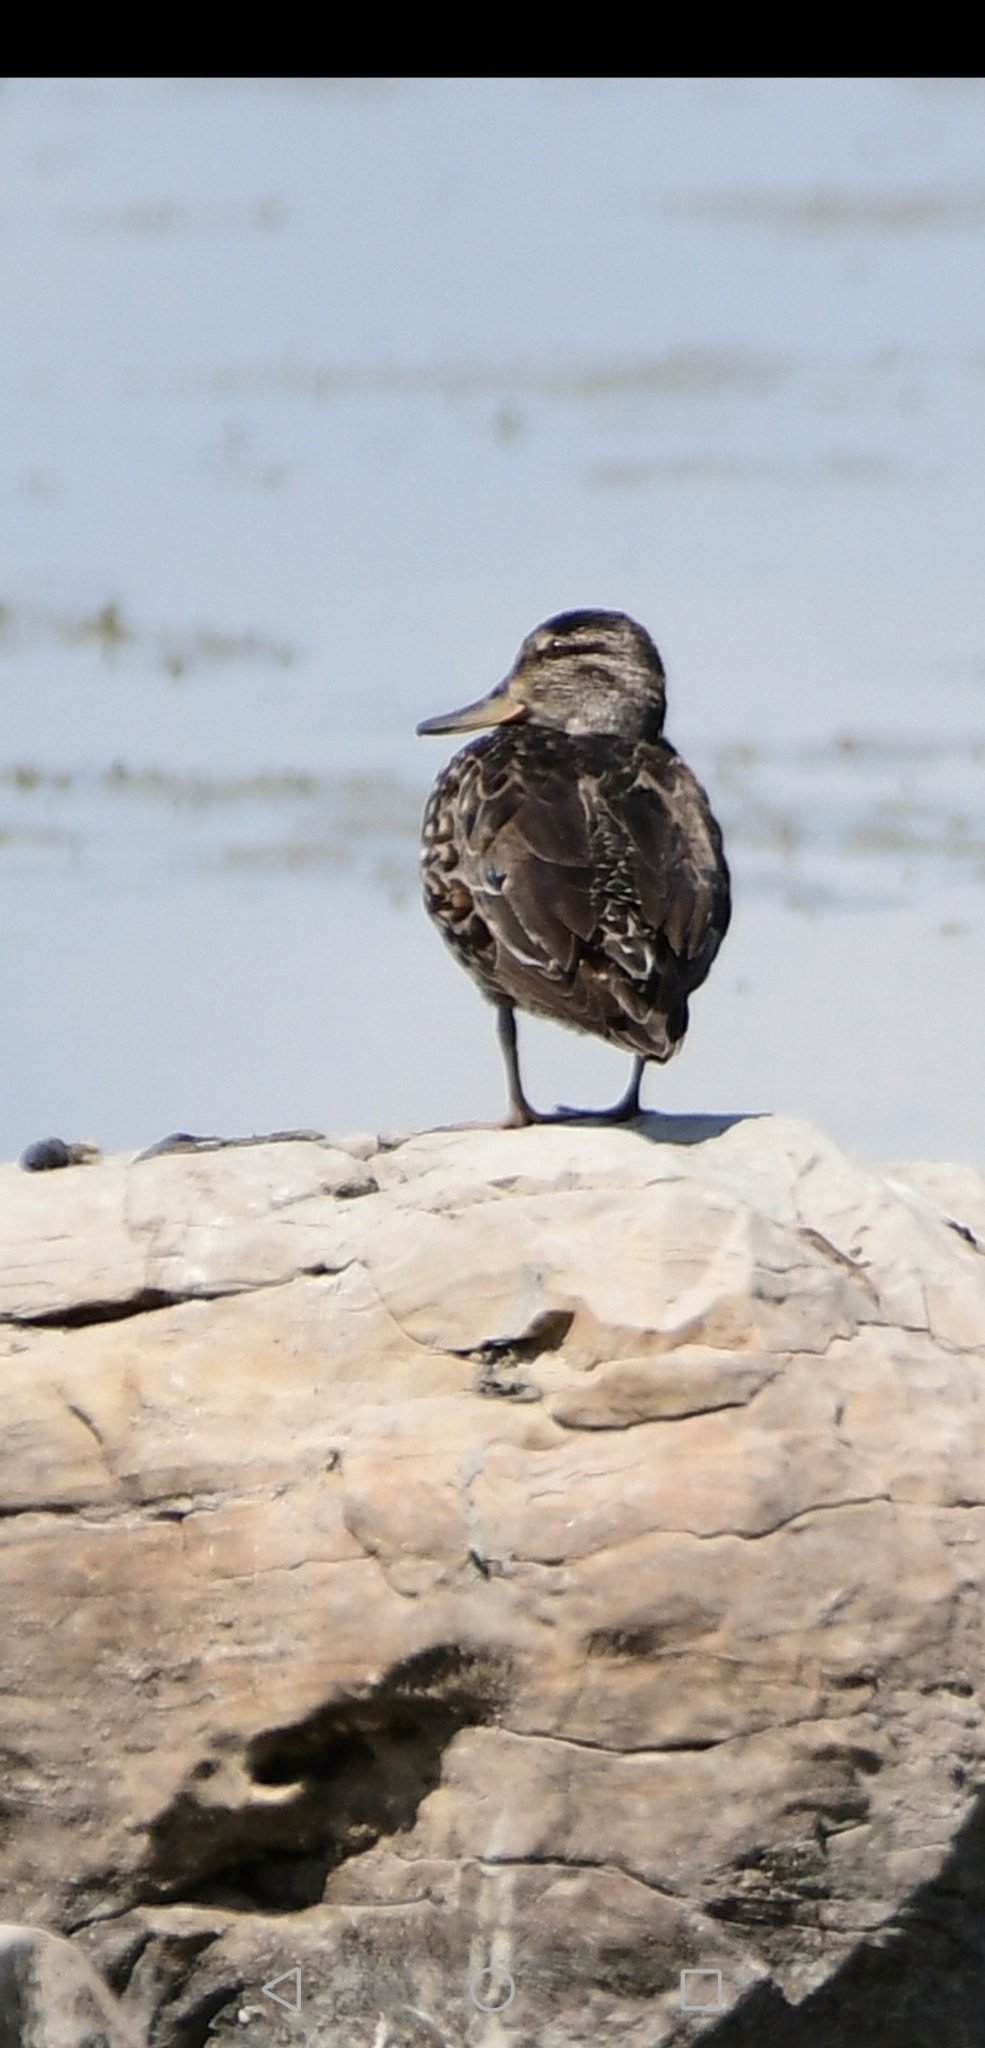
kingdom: Animalia
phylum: Chordata
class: Aves
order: Anseriformes
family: Anatidae
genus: Anas
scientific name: Anas rubripes
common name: American black duck
